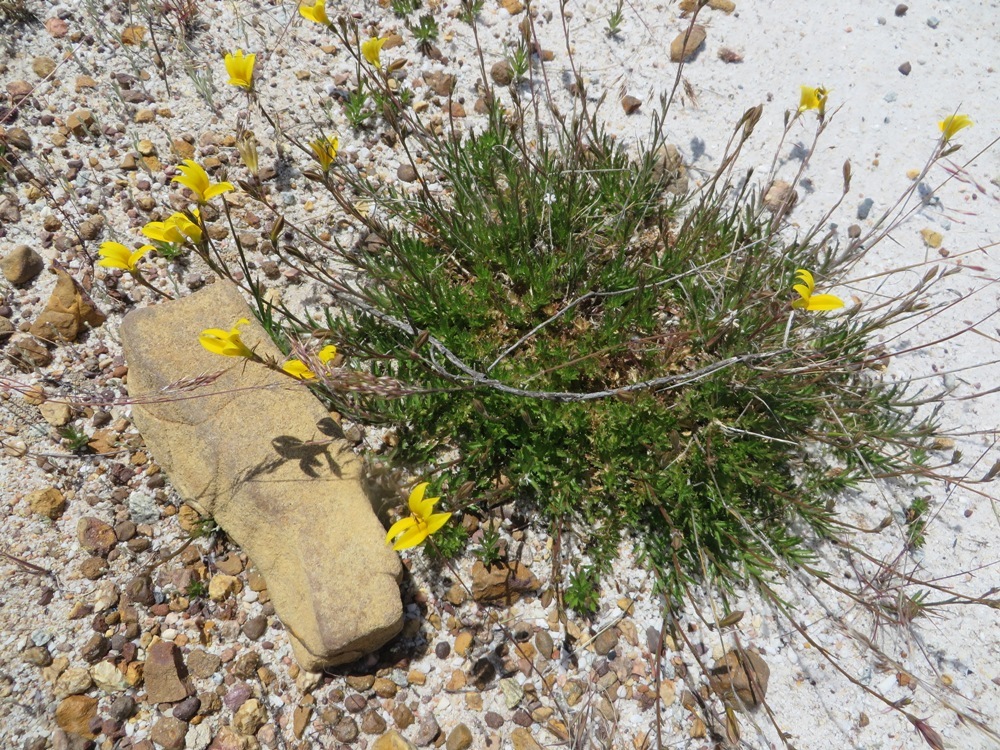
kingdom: Plantae
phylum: Tracheophyta
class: Magnoliopsida
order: Asterales
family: Campanulaceae
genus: Monopsis
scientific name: Monopsis flava
